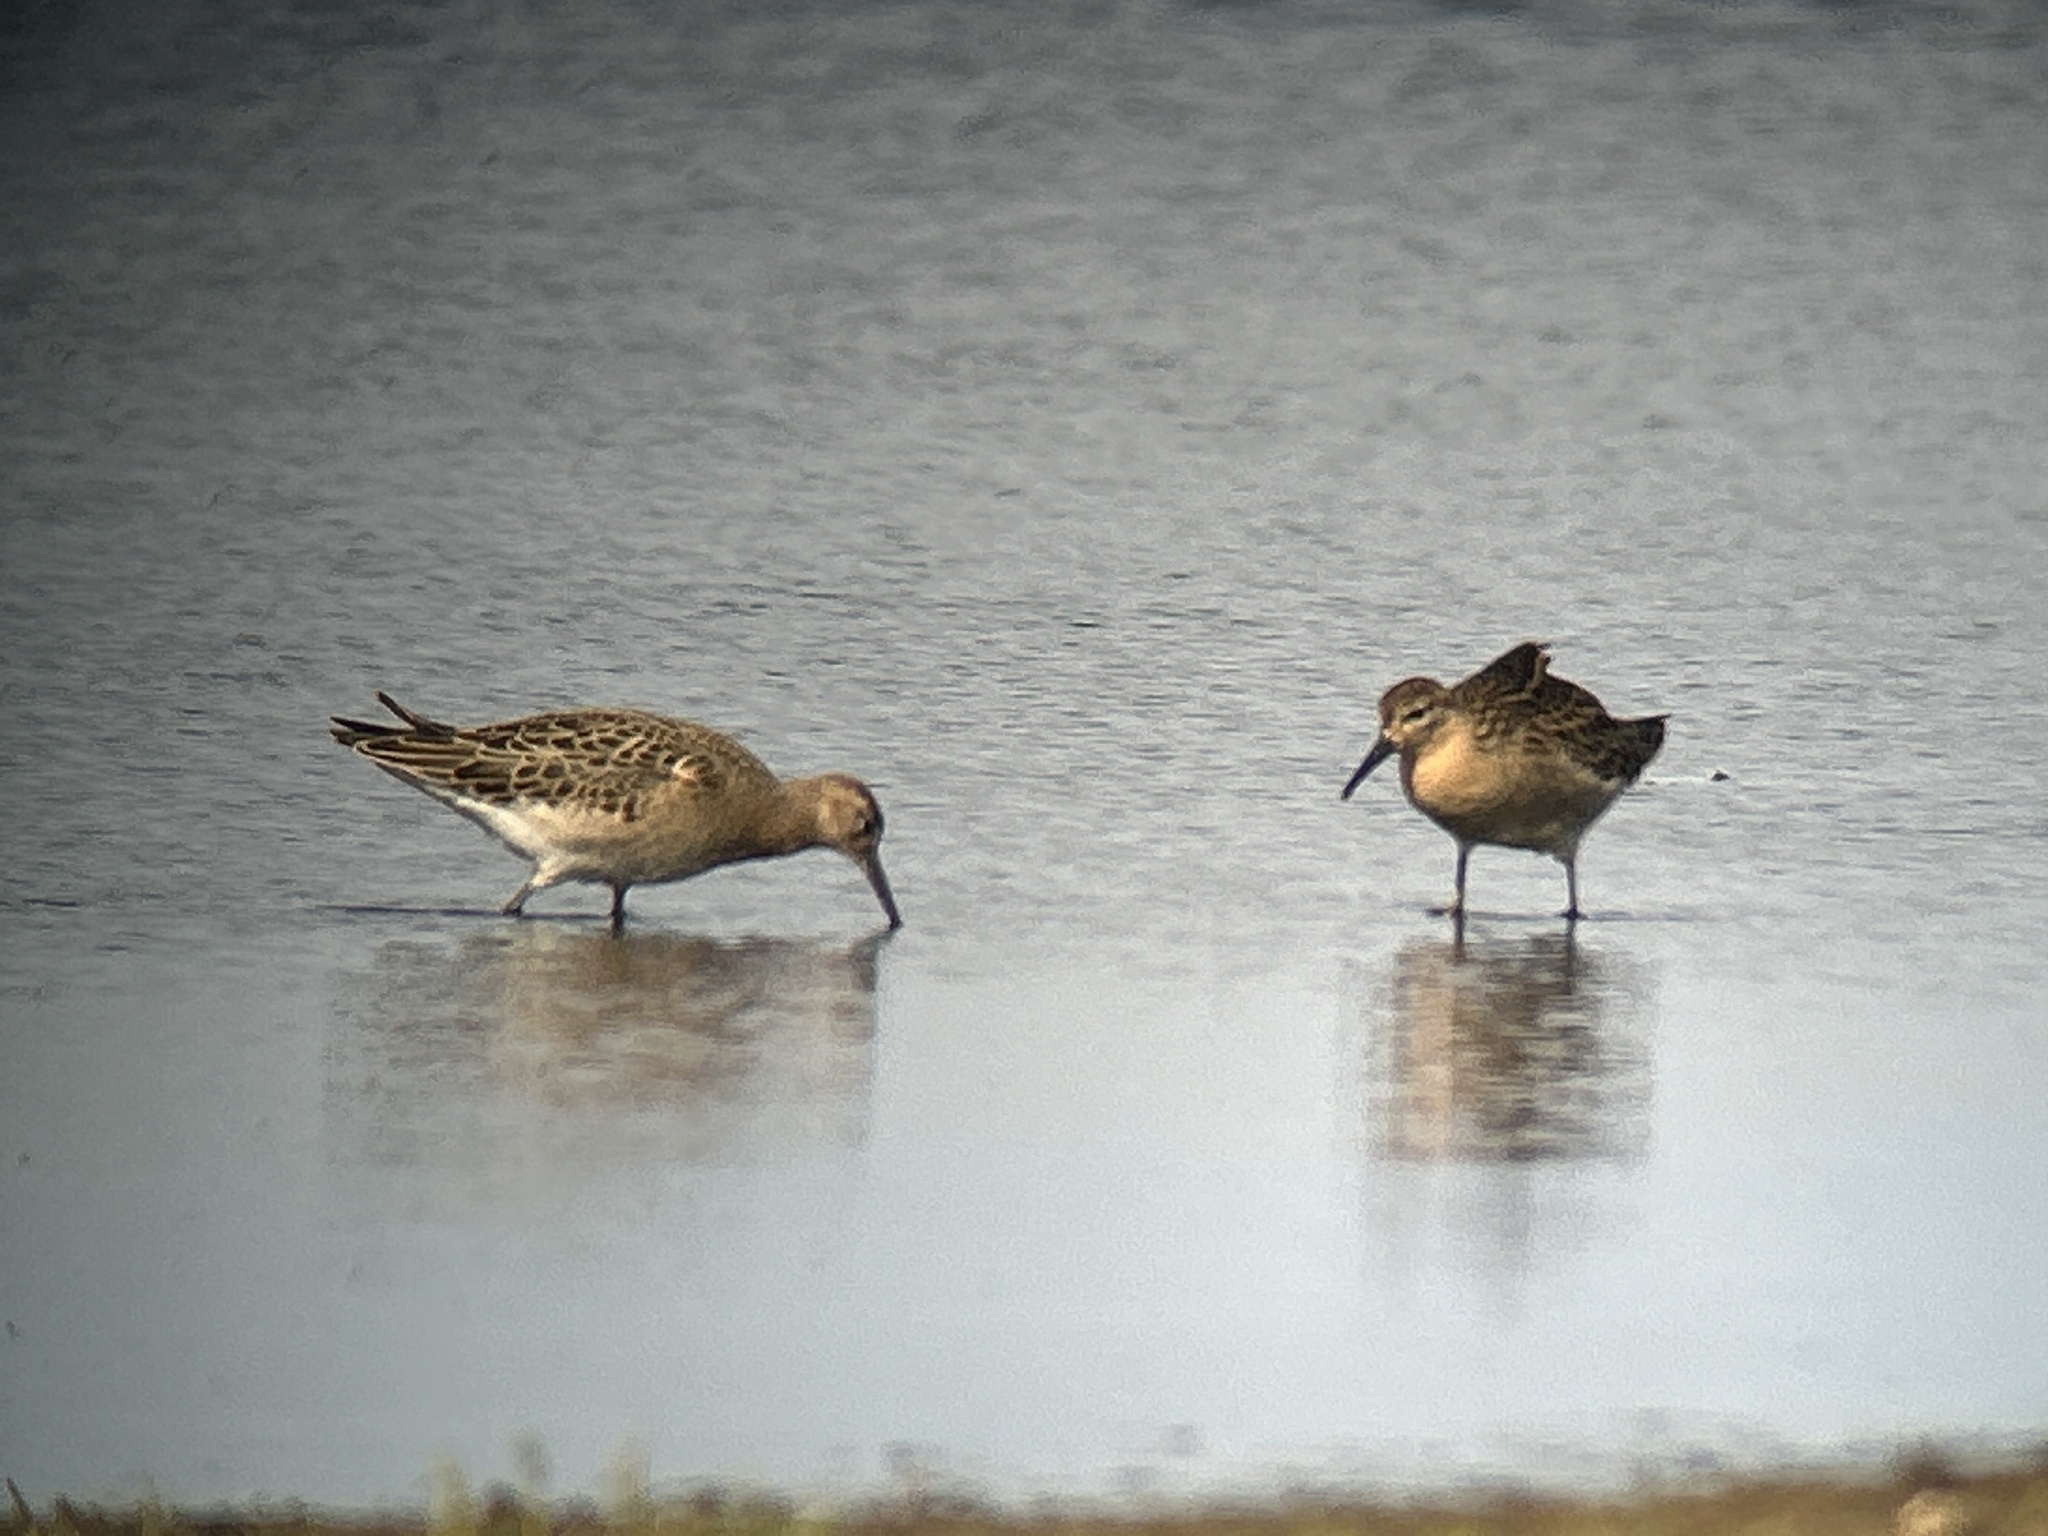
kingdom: Animalia
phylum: Chordata
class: Aves
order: Charadriiformes
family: Scolopacidae
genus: Calidris
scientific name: Calidris pugnax
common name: Ruff
